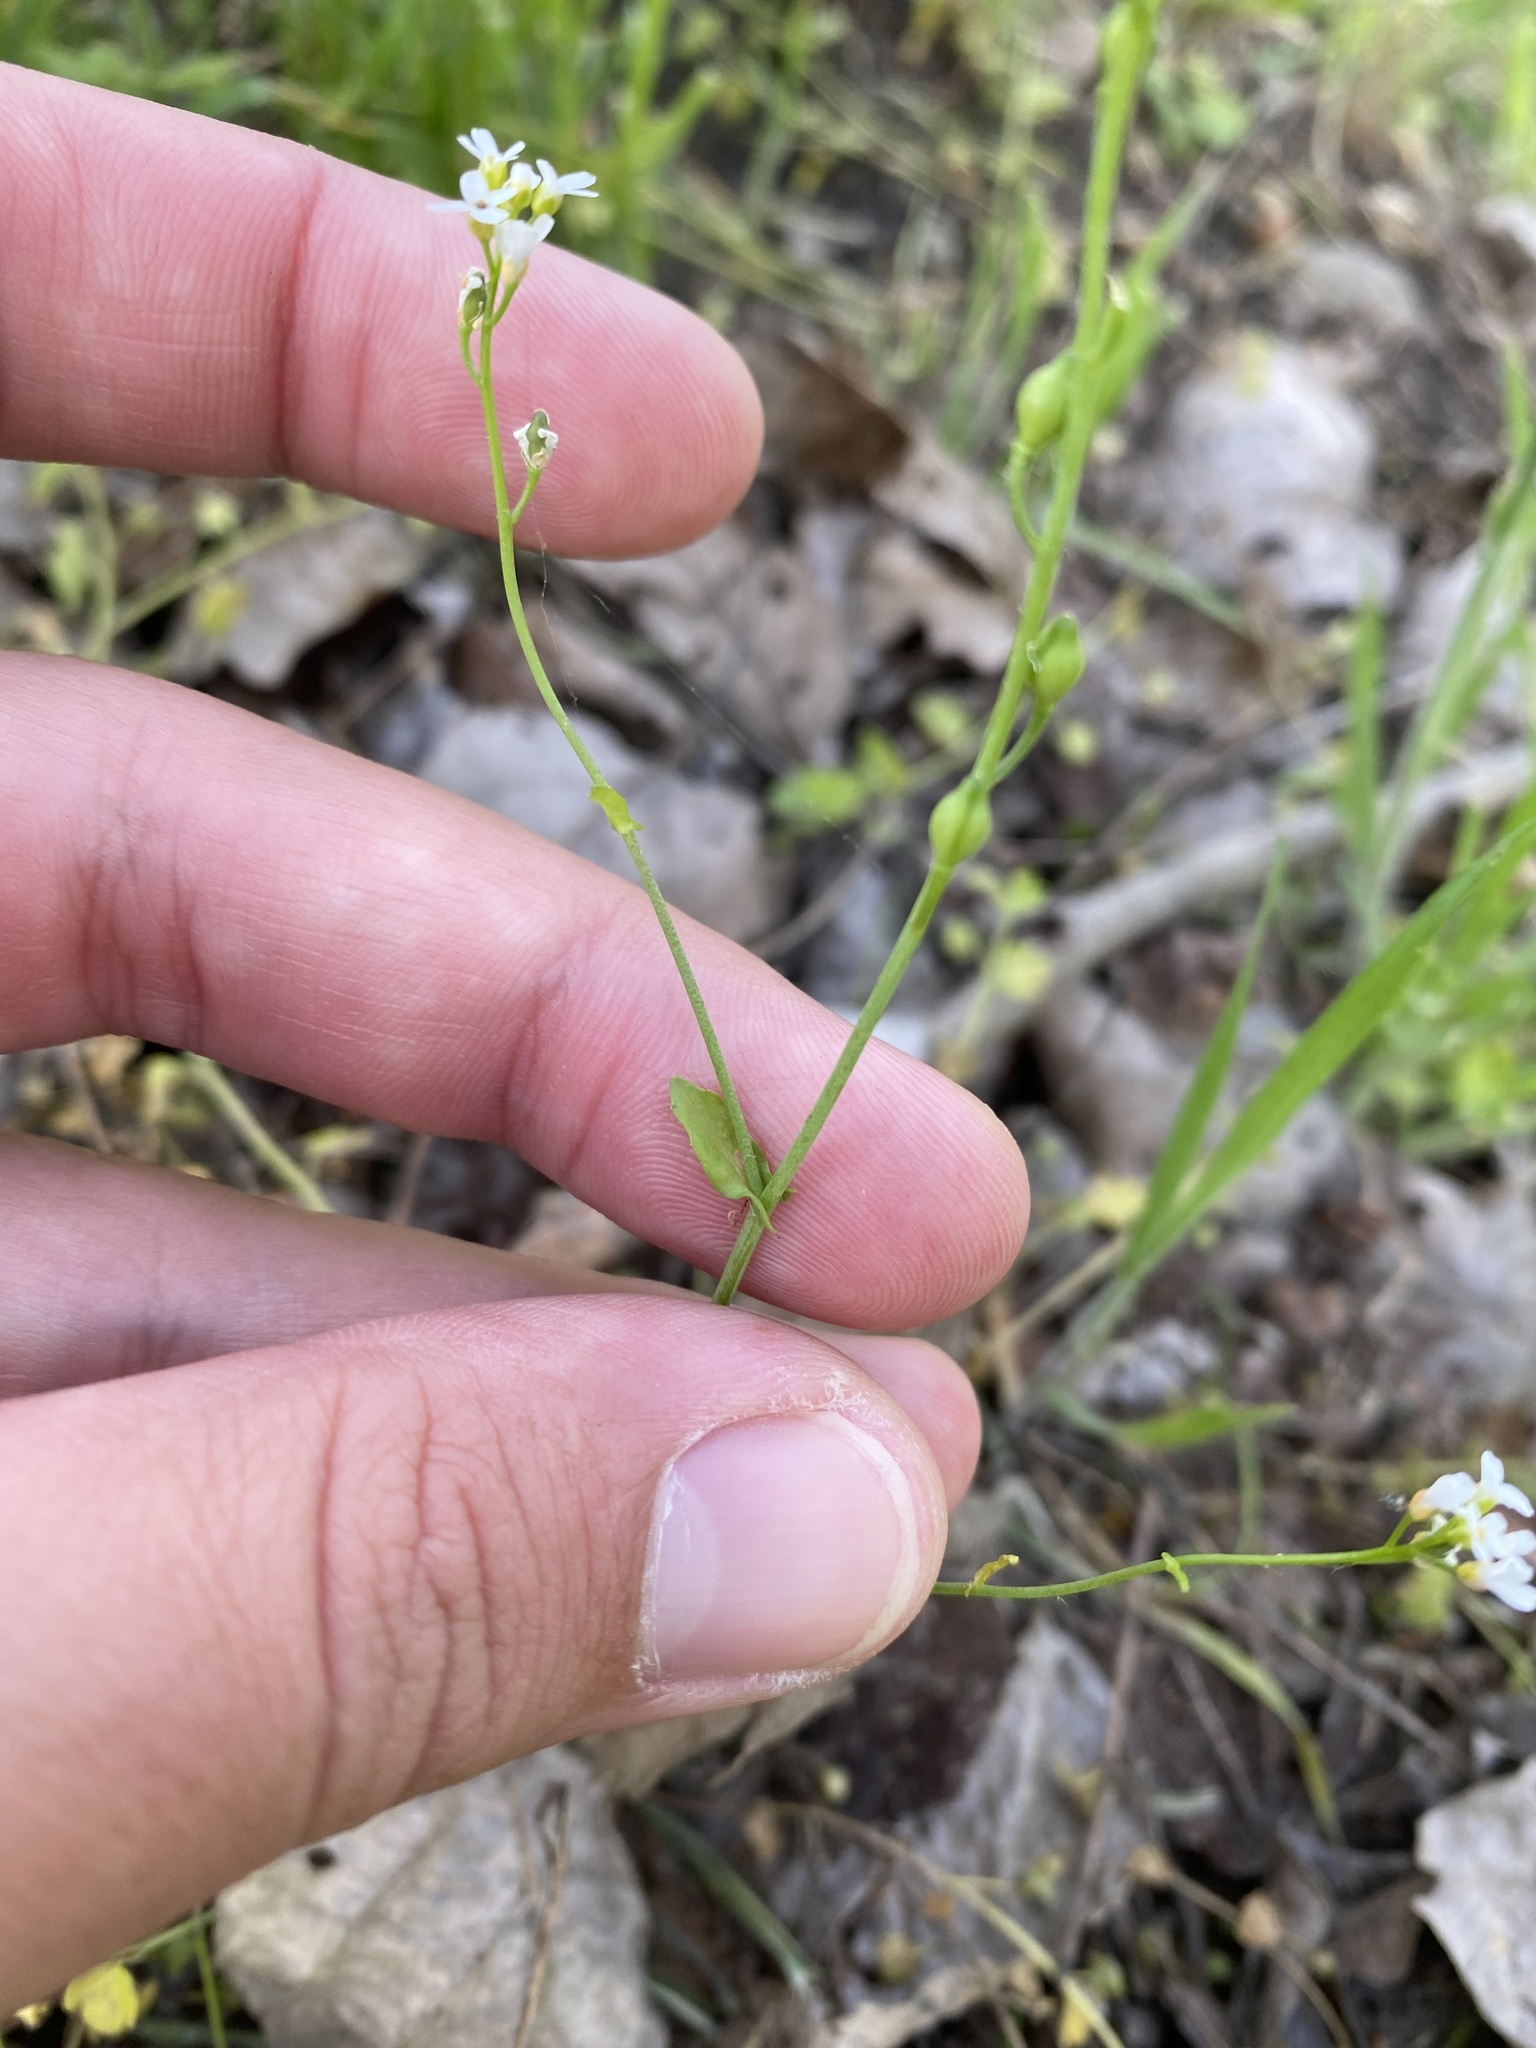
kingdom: Plantae
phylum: Tracheophyta
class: Magnoliopsida
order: Brassicales
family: Brassicaceae
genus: Calepina
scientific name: Calepina irregularis
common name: White ballmustard
